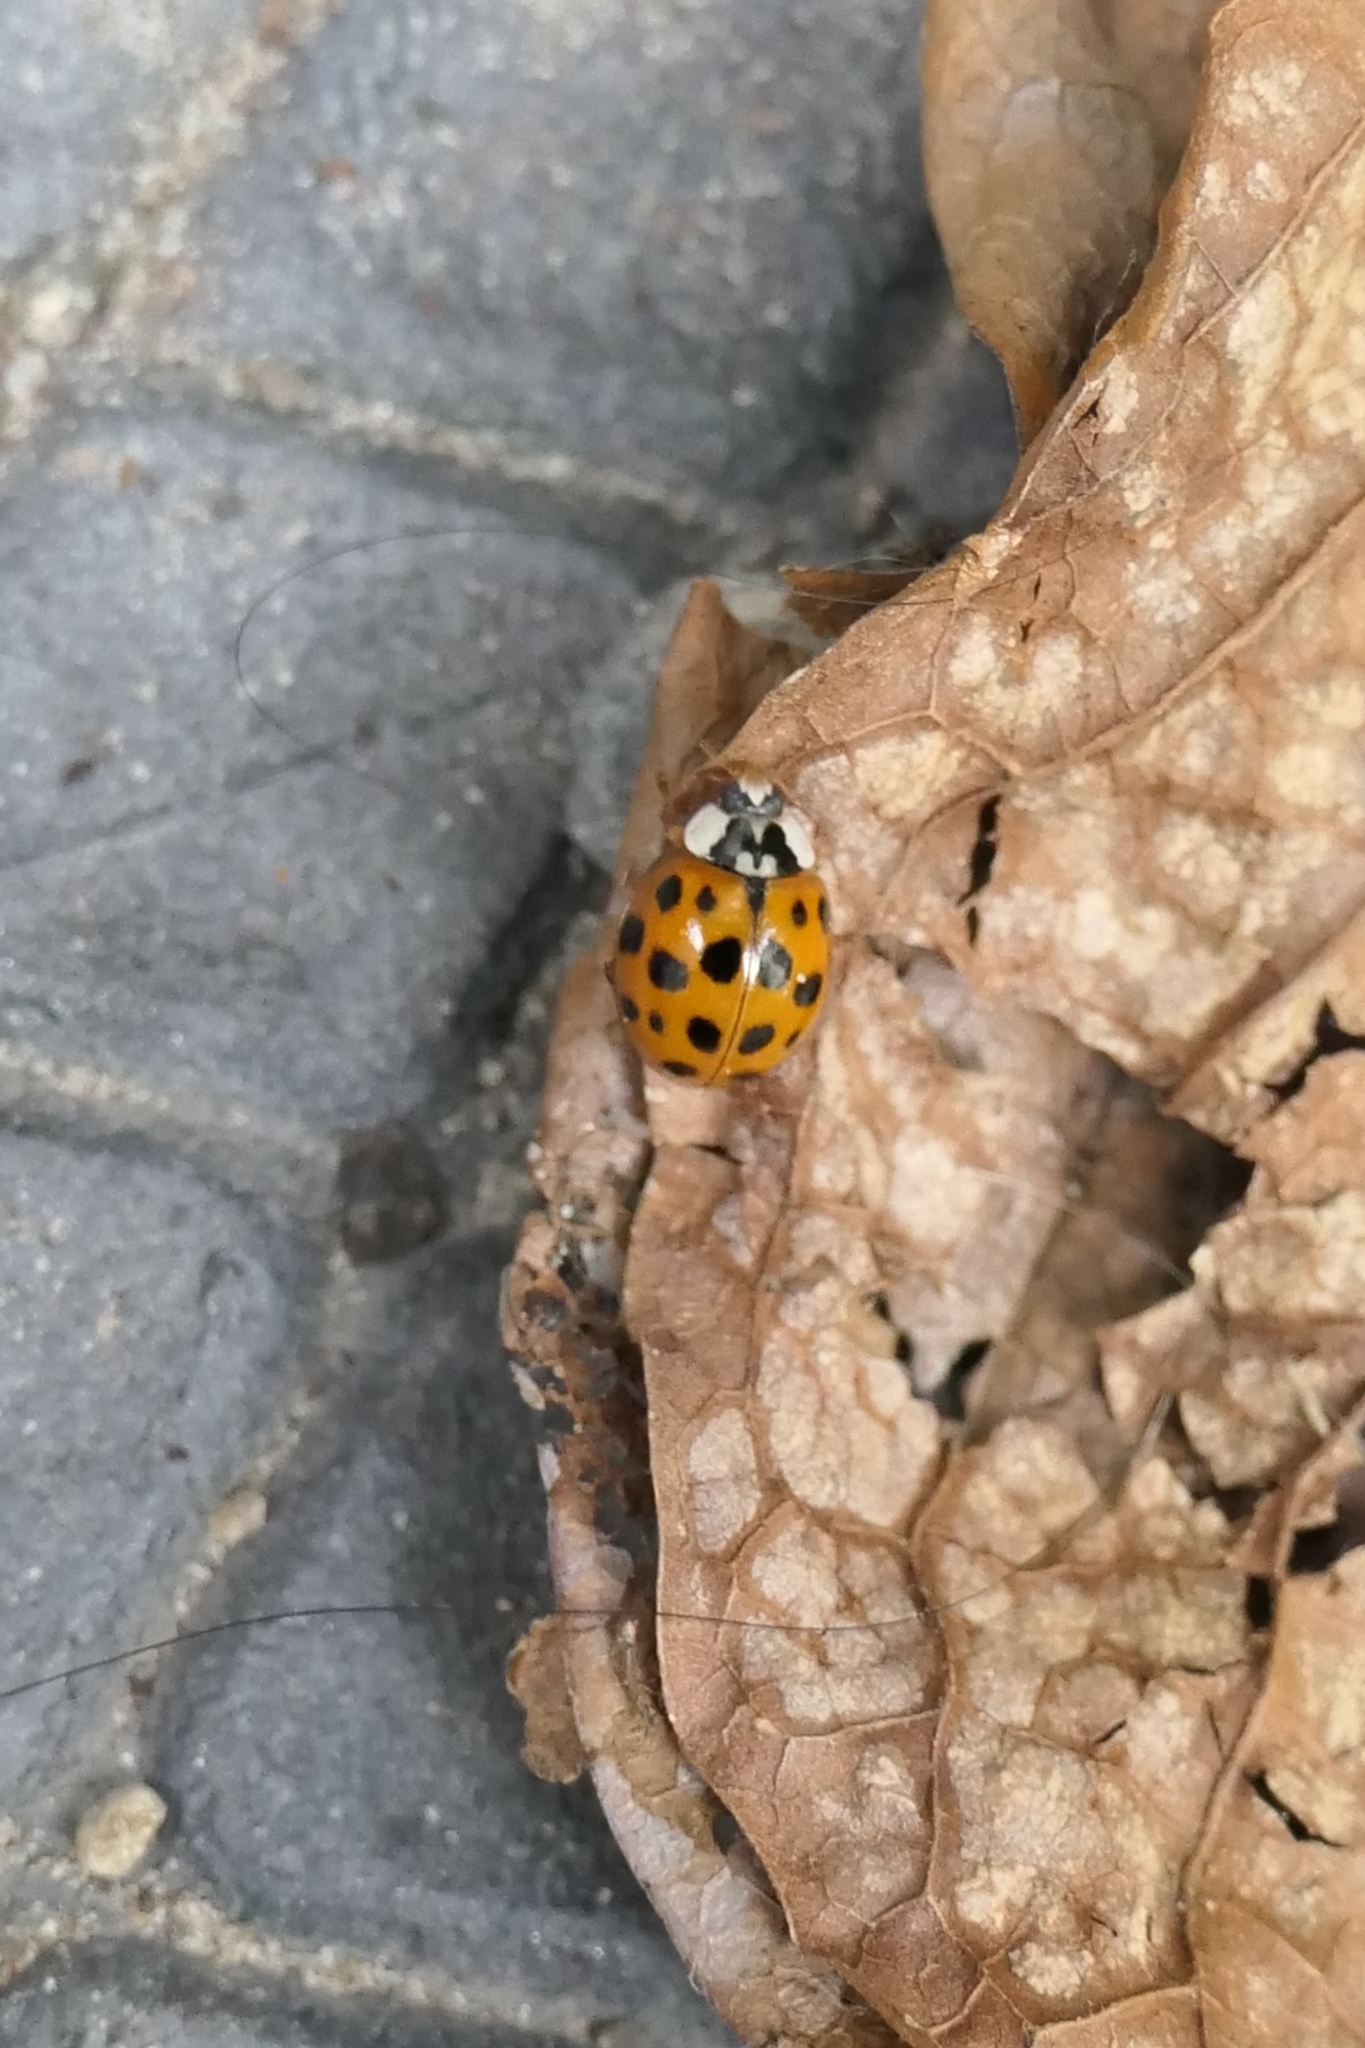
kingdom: Animalia
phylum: Arthropoda
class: Insecta
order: Coleoptera
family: Coccinellidae
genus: Harmonia
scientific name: Harmonia axyridis
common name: Harlequin ladybird
